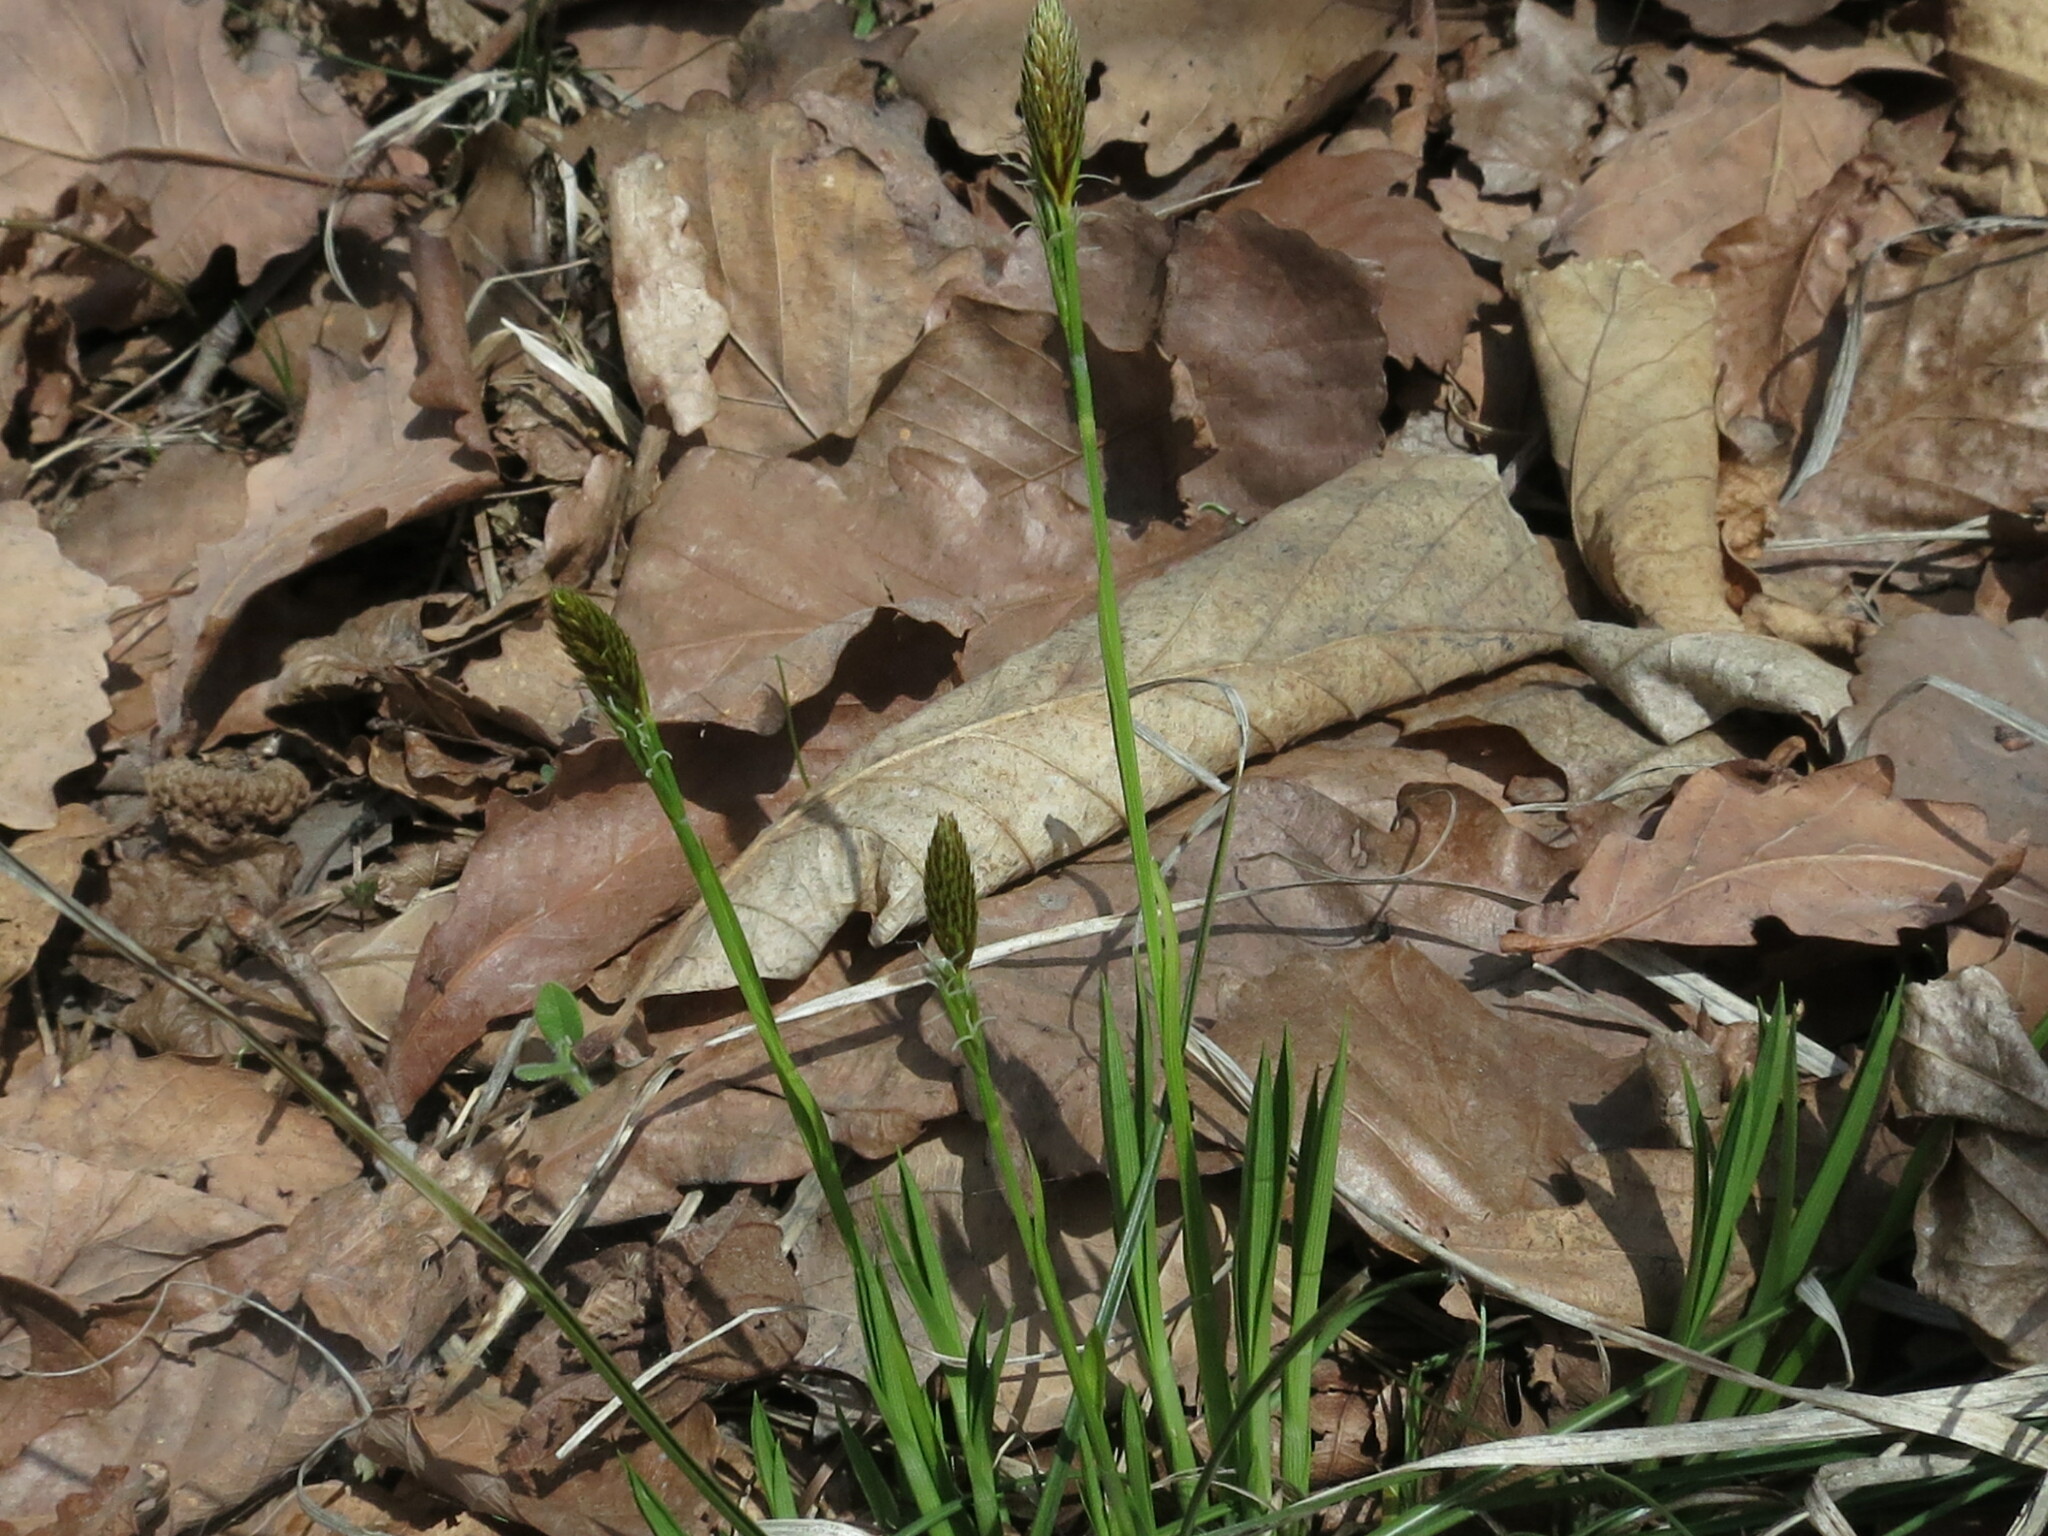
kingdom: Plantae
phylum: Tracheophyta
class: Liliopsida
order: Poales
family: Cyperaceae
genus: Carex
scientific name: Carex longerostrata
